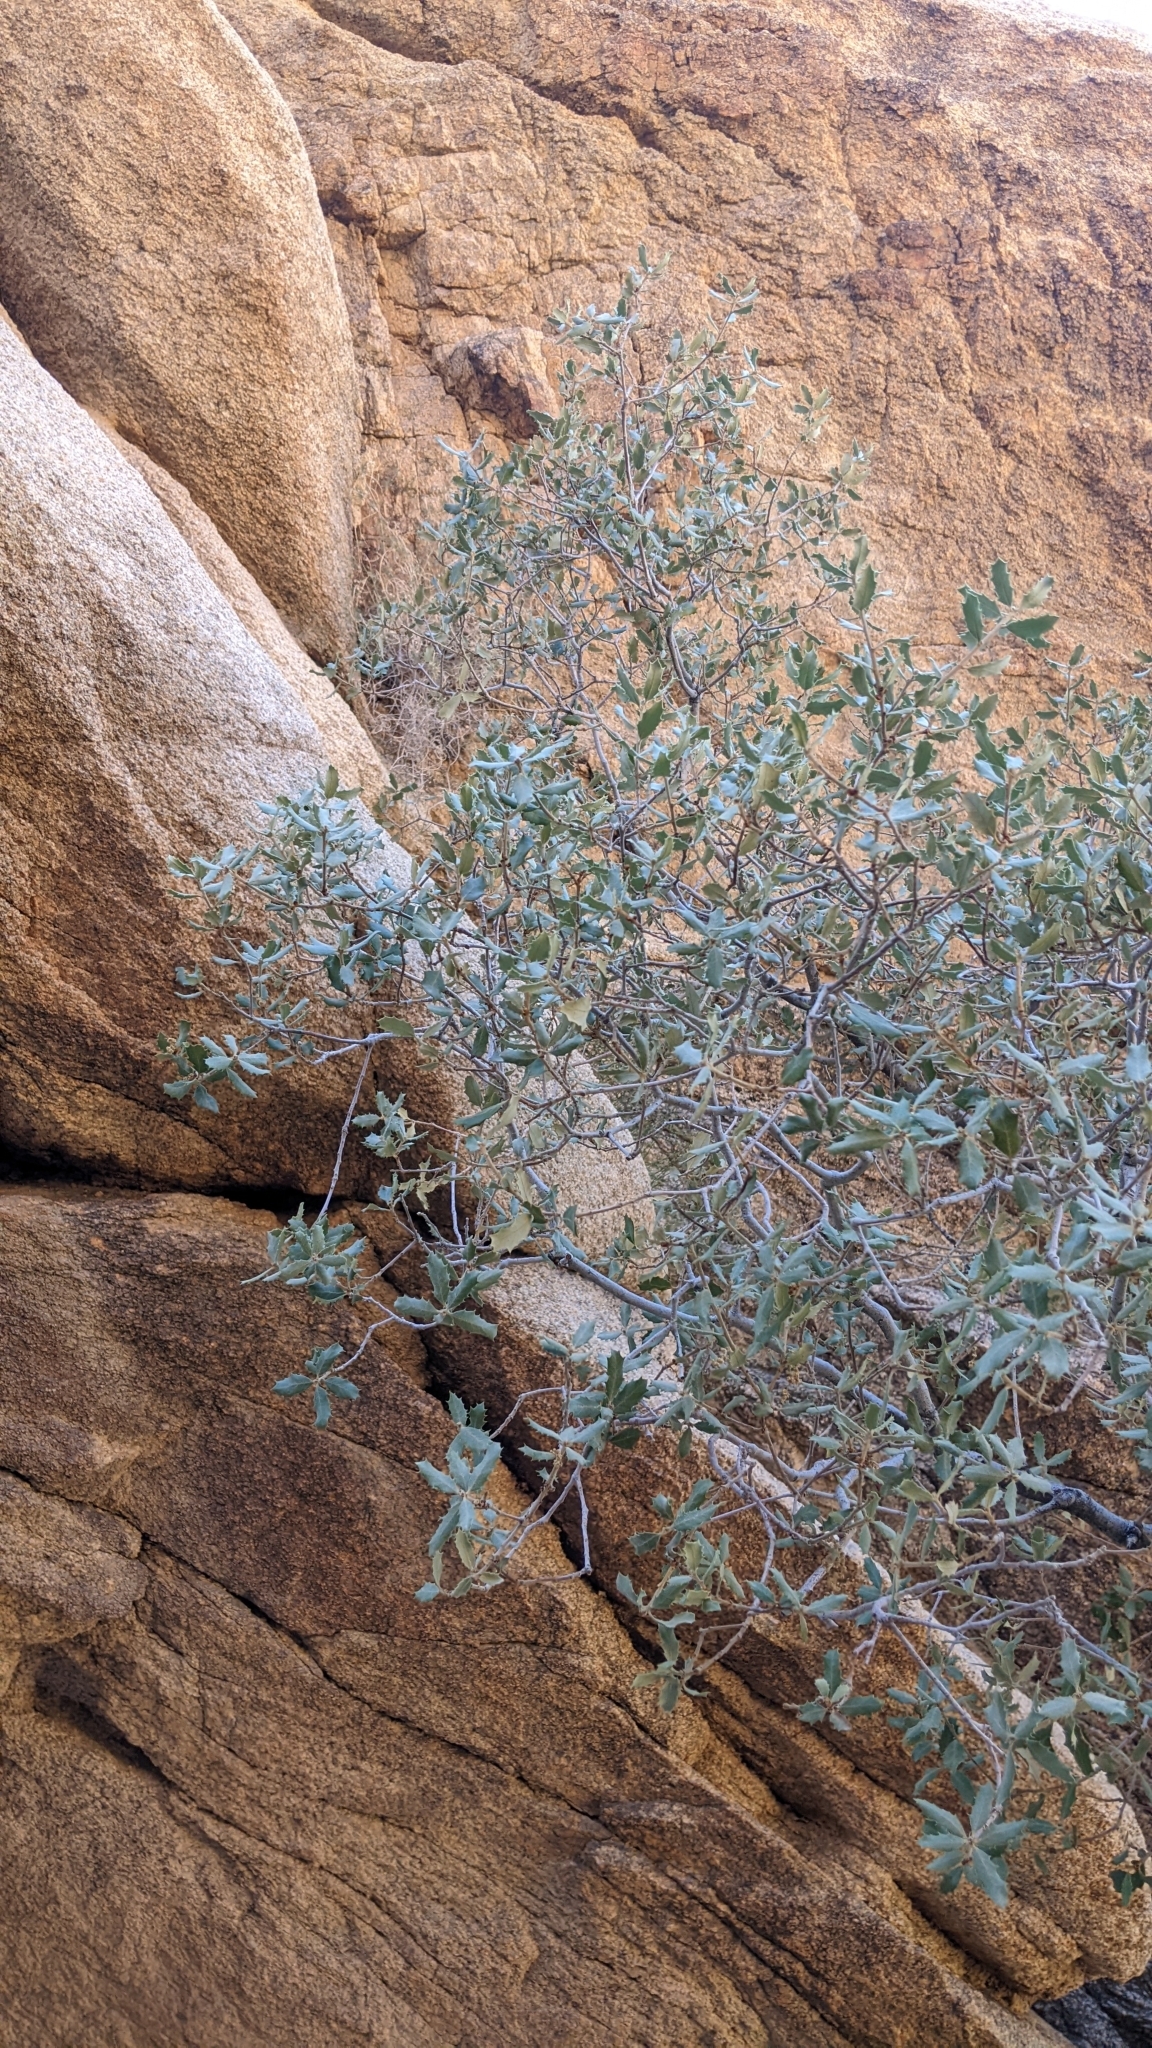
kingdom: Plantae
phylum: Tracheophyta
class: Magnoliopsida
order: Fagales
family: Fagaceae
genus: Quercus
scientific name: Quercus cornelius-mulleri
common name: Muller oak
